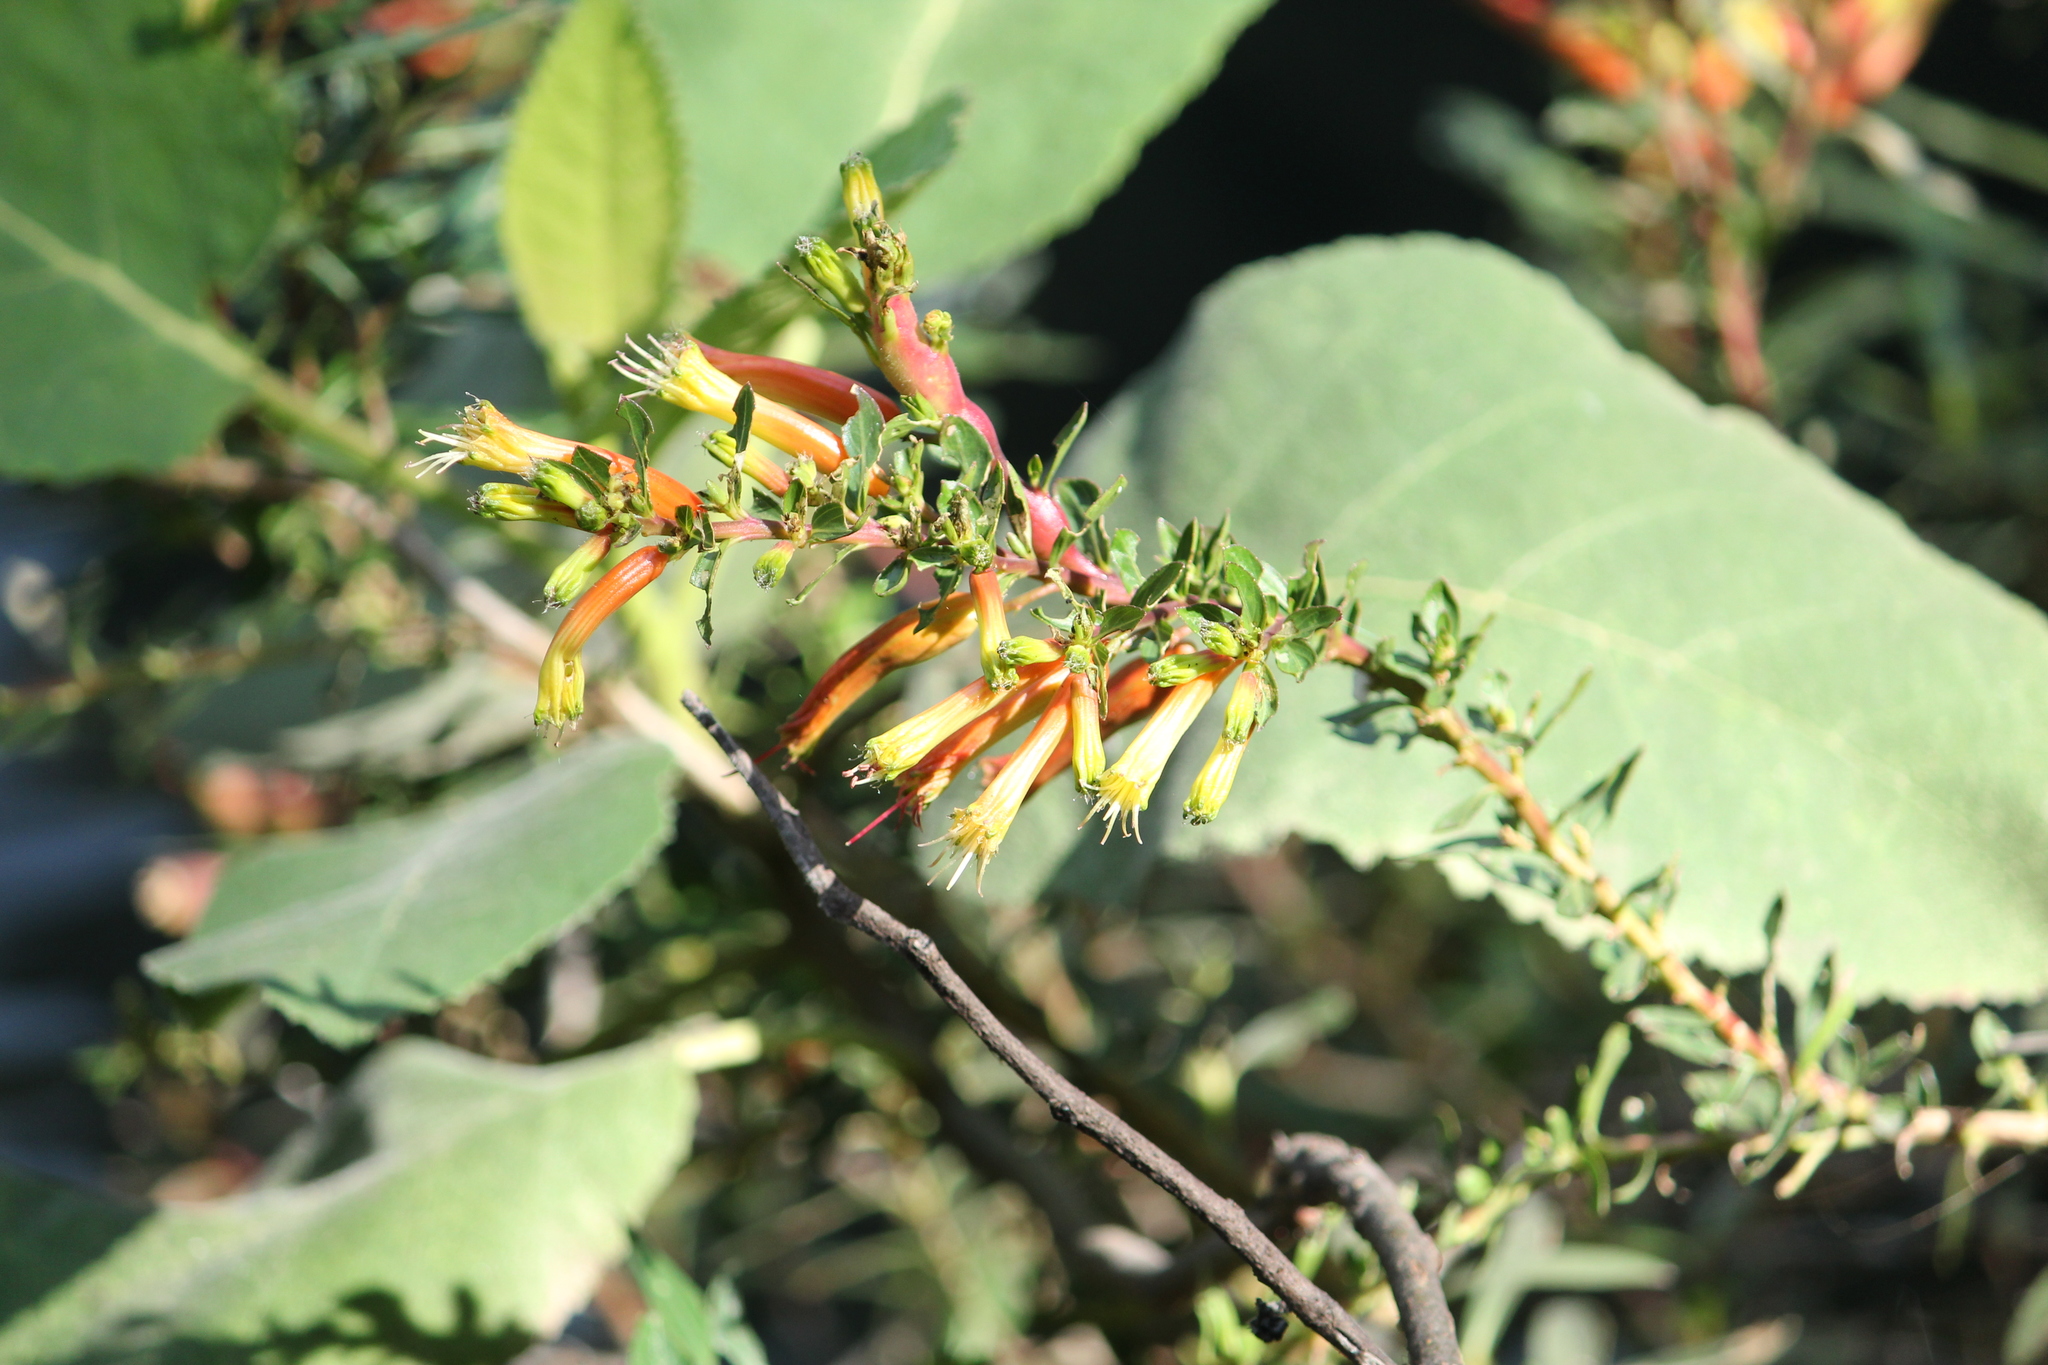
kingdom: Plantae
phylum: Tracheophyta
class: Magnoliopsida
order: Myrtales
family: Lythraceae
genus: Cuphea
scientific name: Cuphea micropetala
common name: Candycorn-plant
